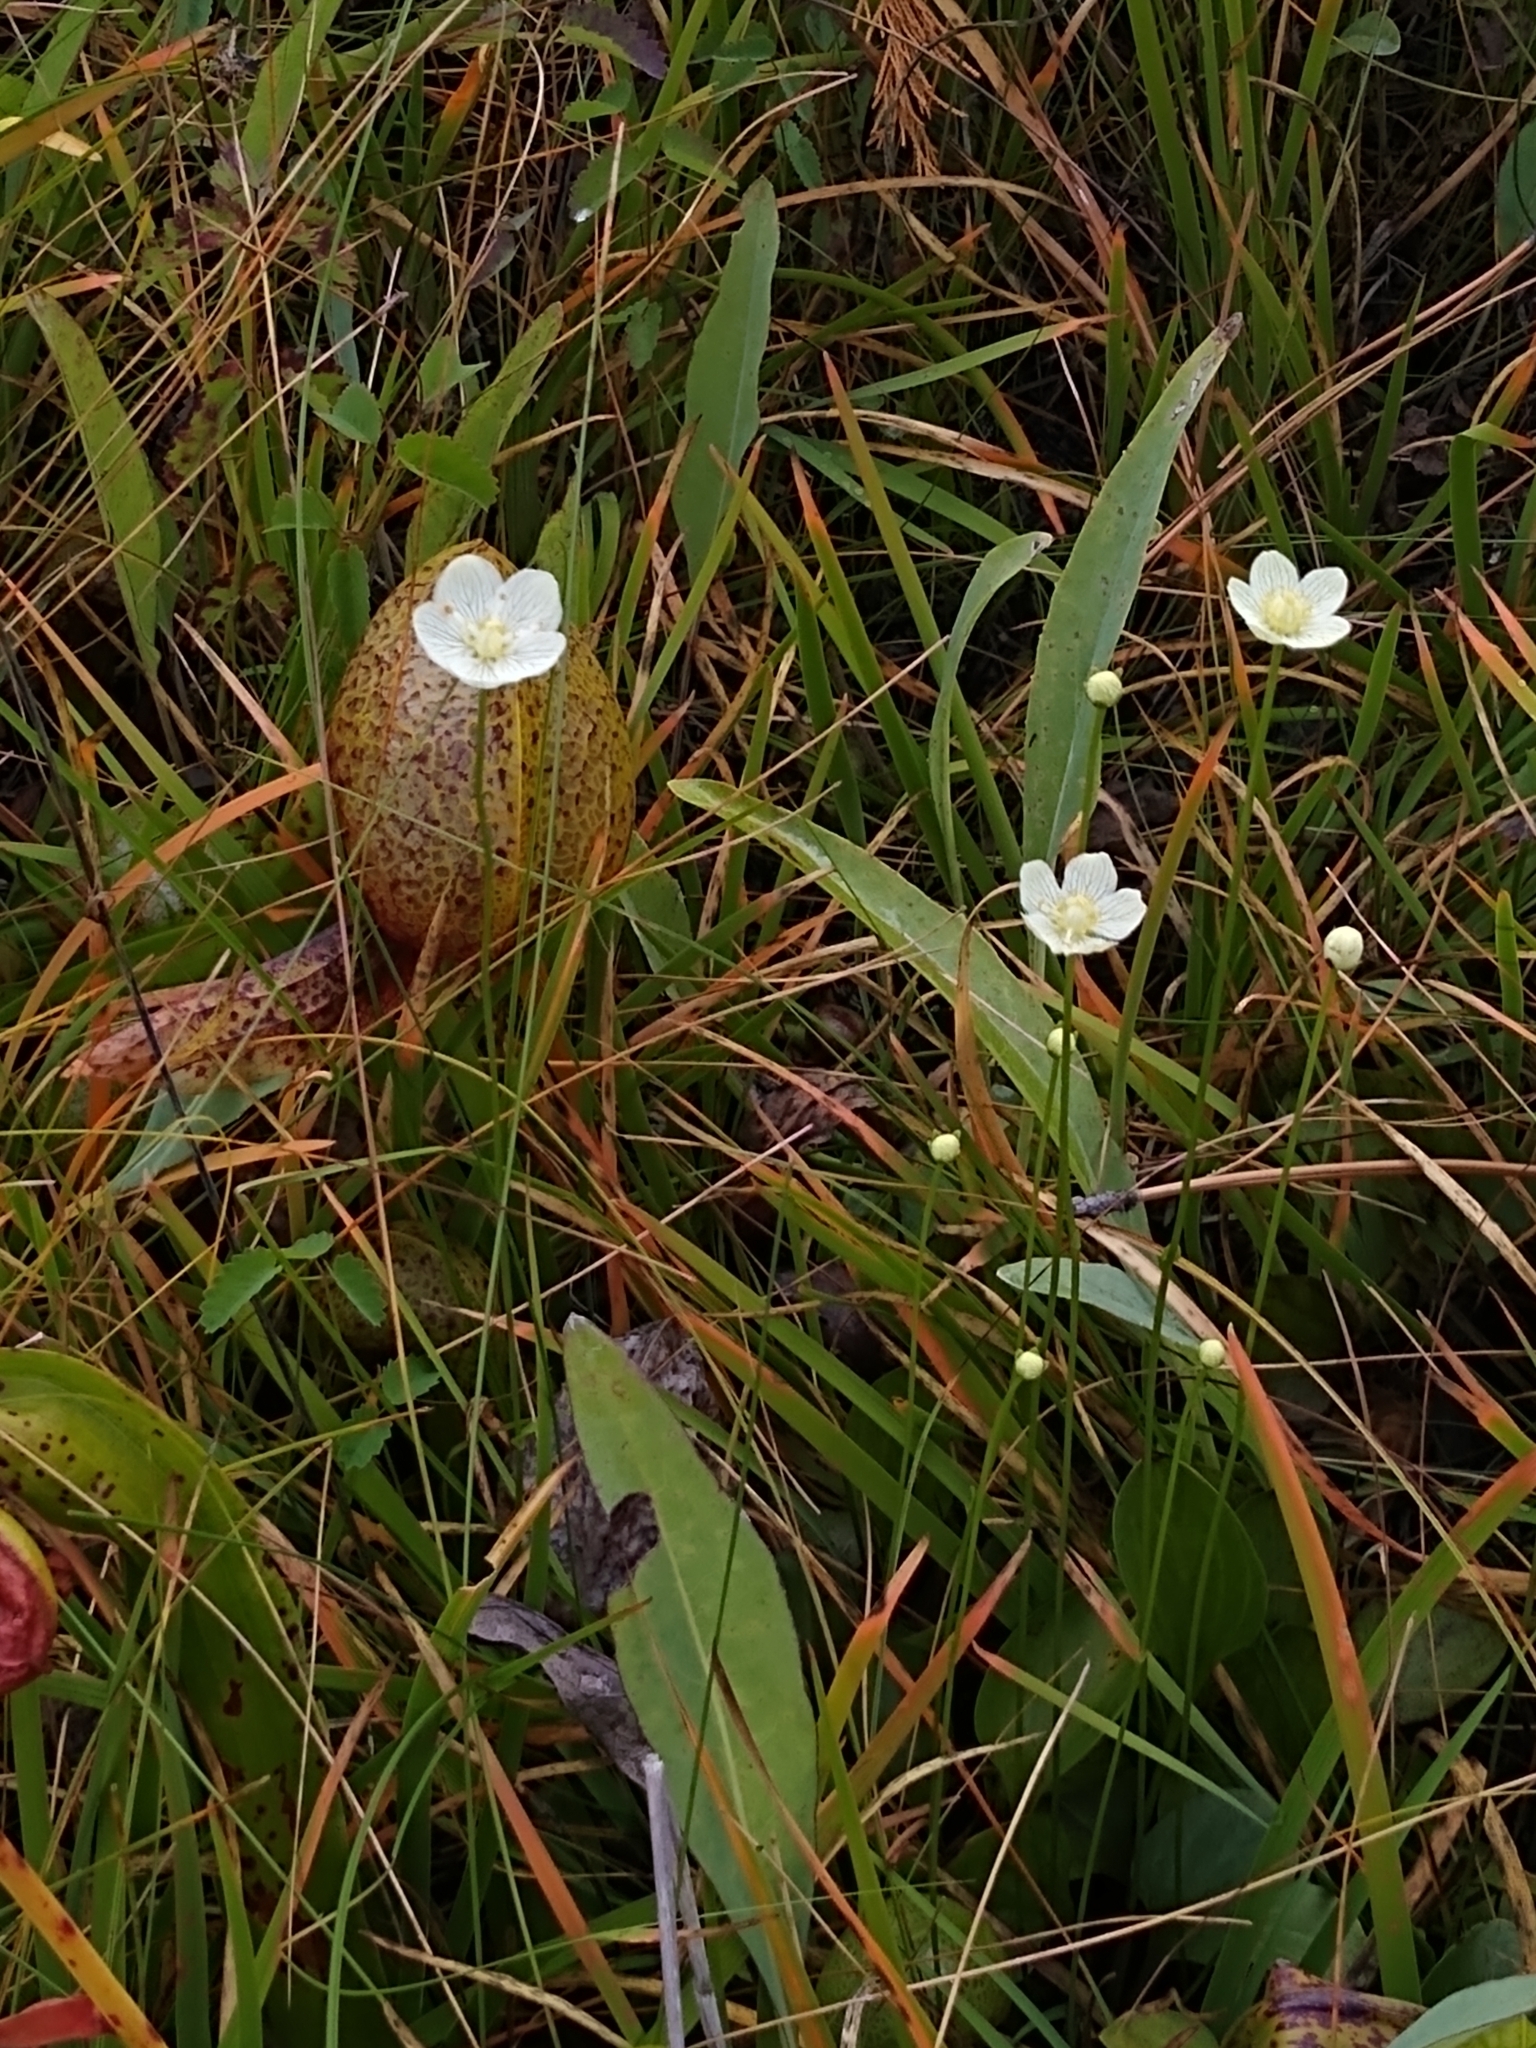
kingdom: Plantae
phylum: Tracheophyta
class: Magnoliopsida
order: Celastrales
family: Parnassiaceae
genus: Parnassia
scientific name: Parnassia palustris
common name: Grass-of-parnassus
